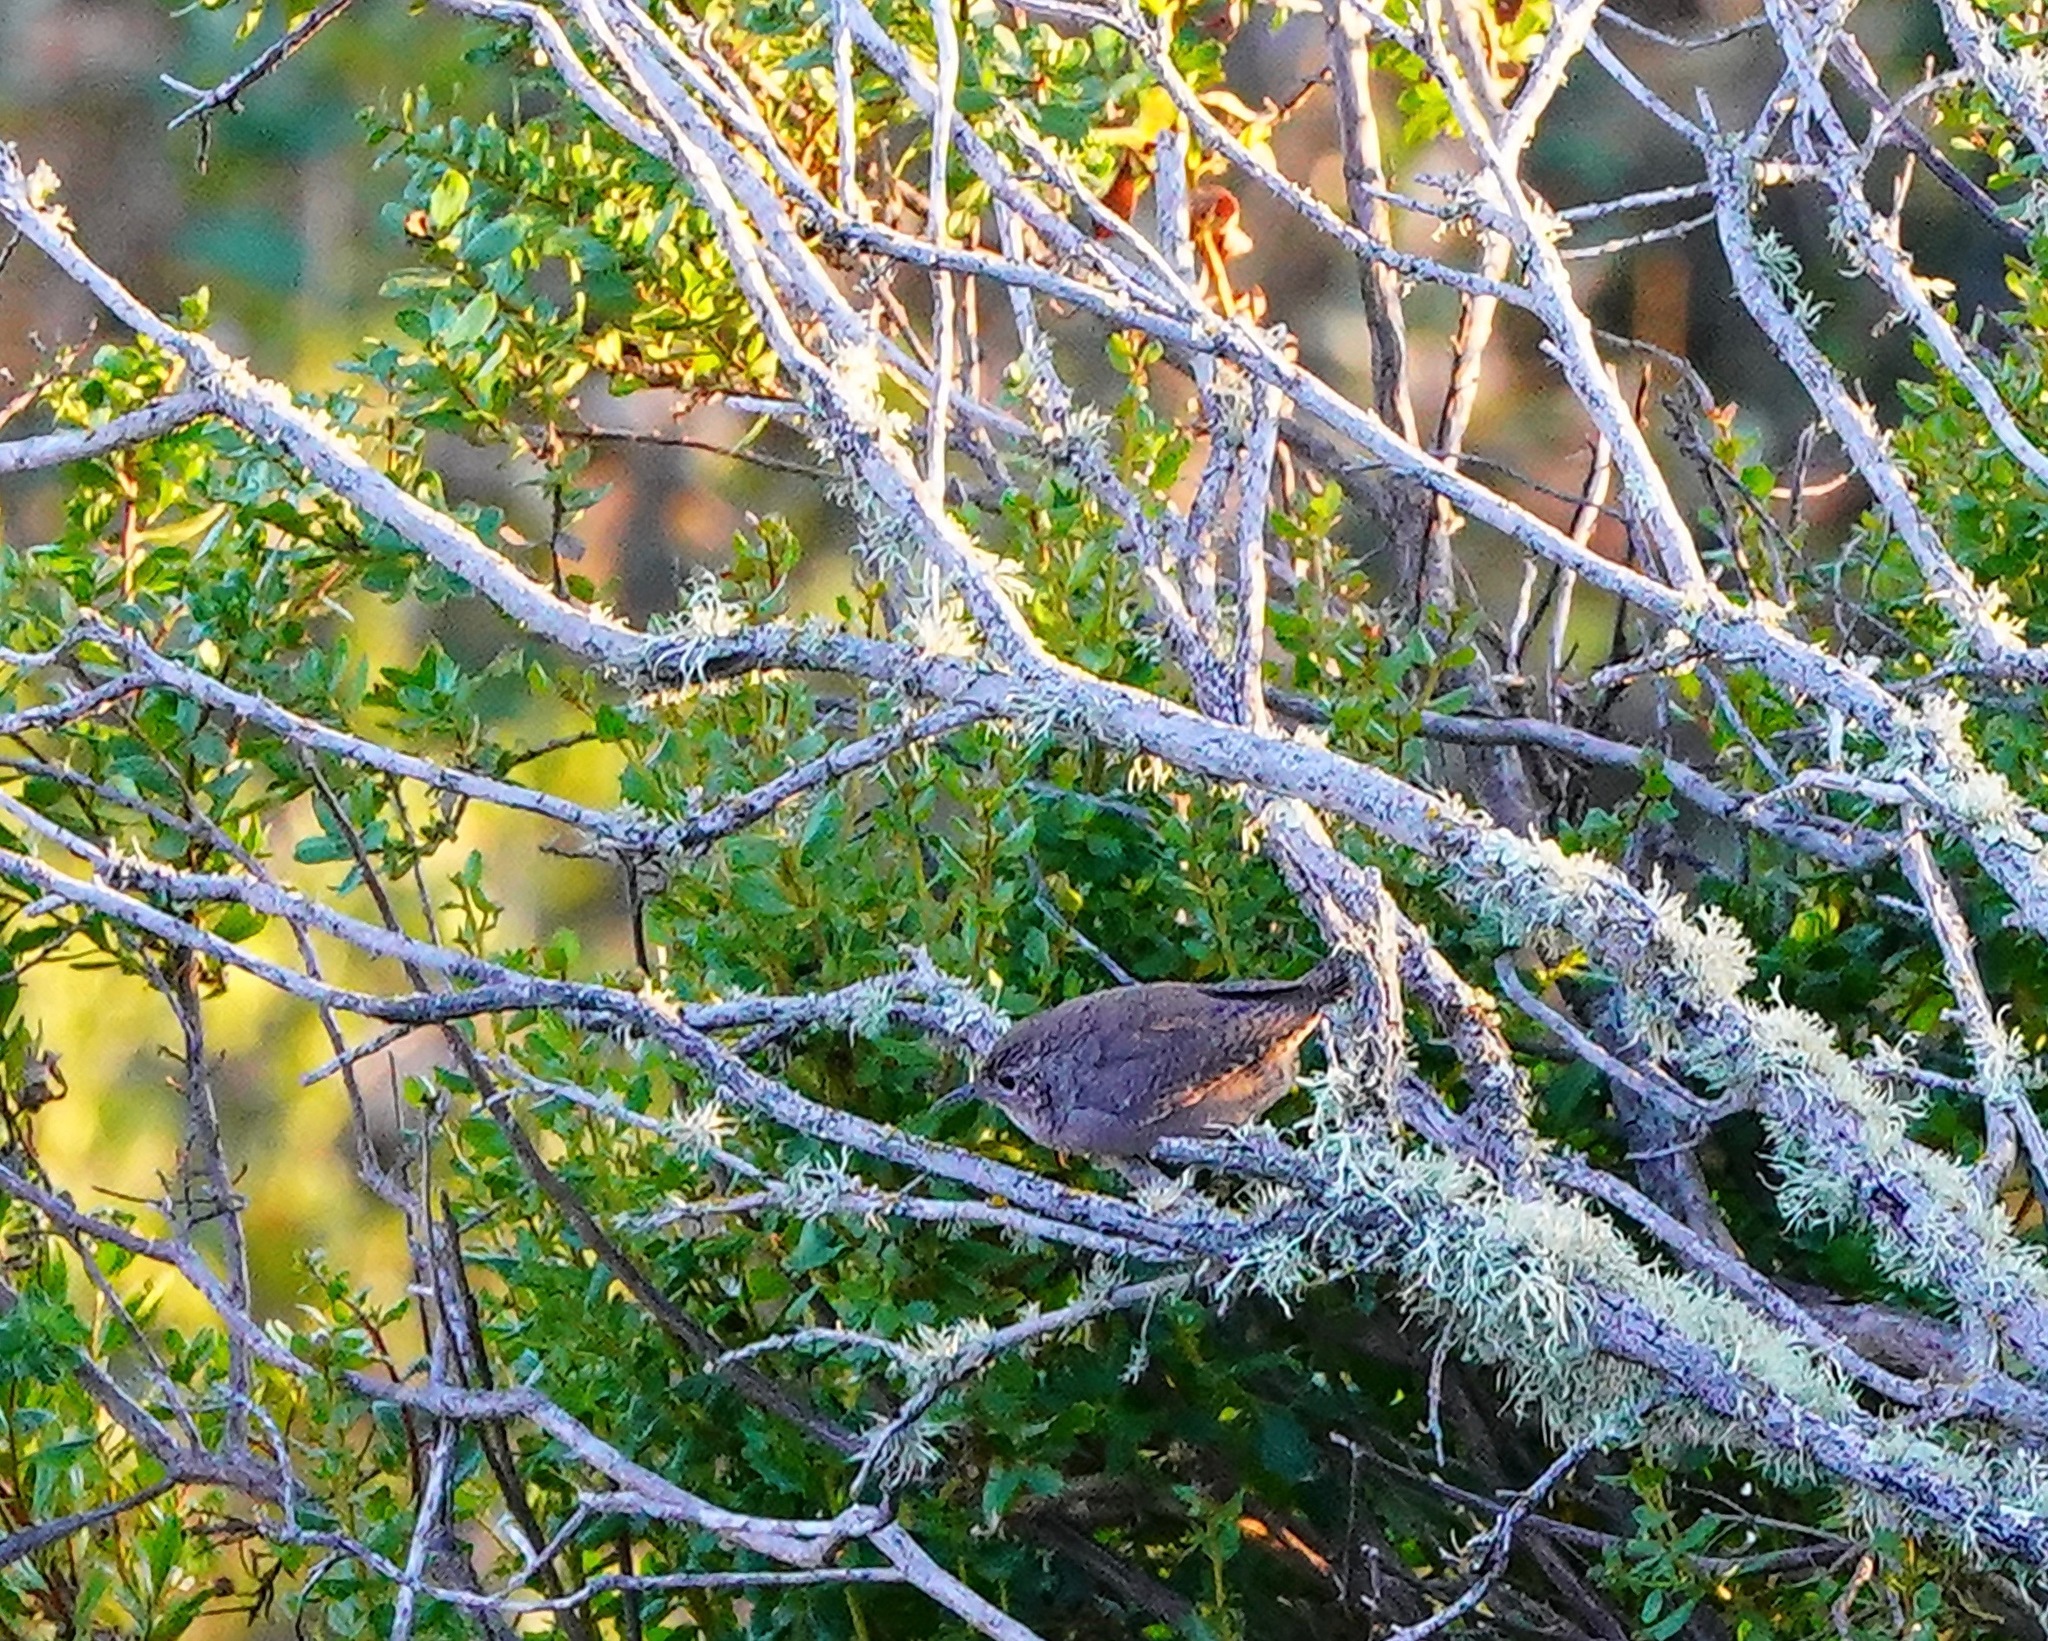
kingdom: Animalia
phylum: Chordata
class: Aves
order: Passeriformes
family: Troglodytidae
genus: Troglodytes
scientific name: Troglodytes aedon
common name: House wren
